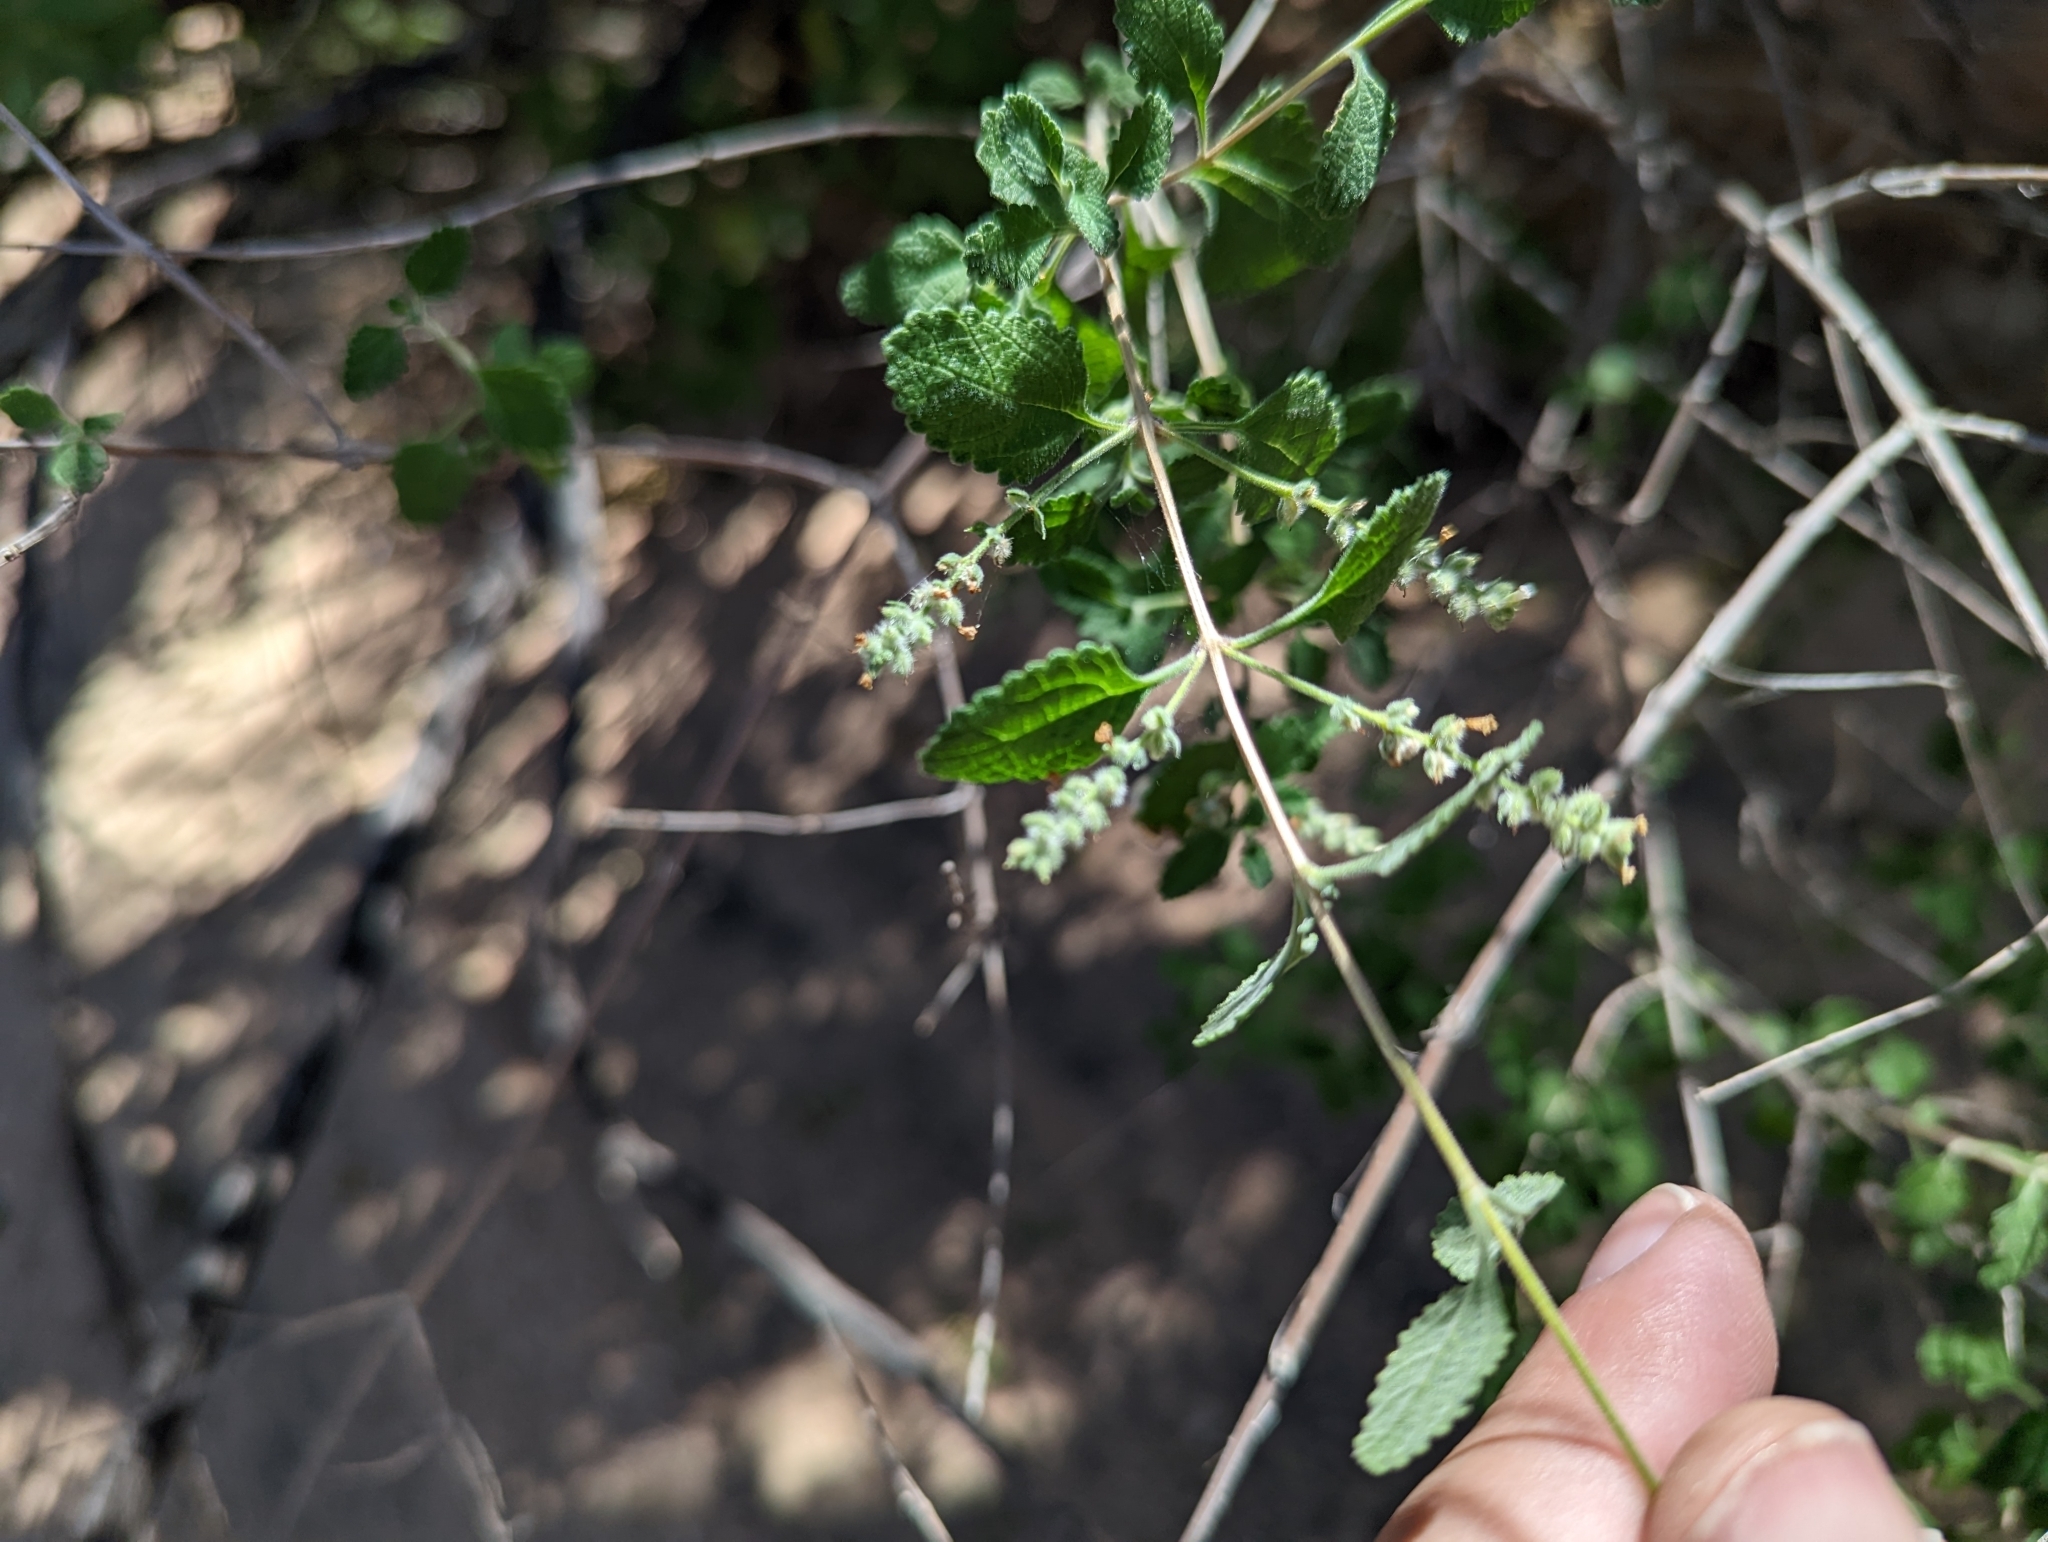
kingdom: Plantae
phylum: Tracheophyta
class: Magnoliopsida
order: Lamiales
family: Verbenaceae
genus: Aloysia
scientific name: Aloysia wrightii
